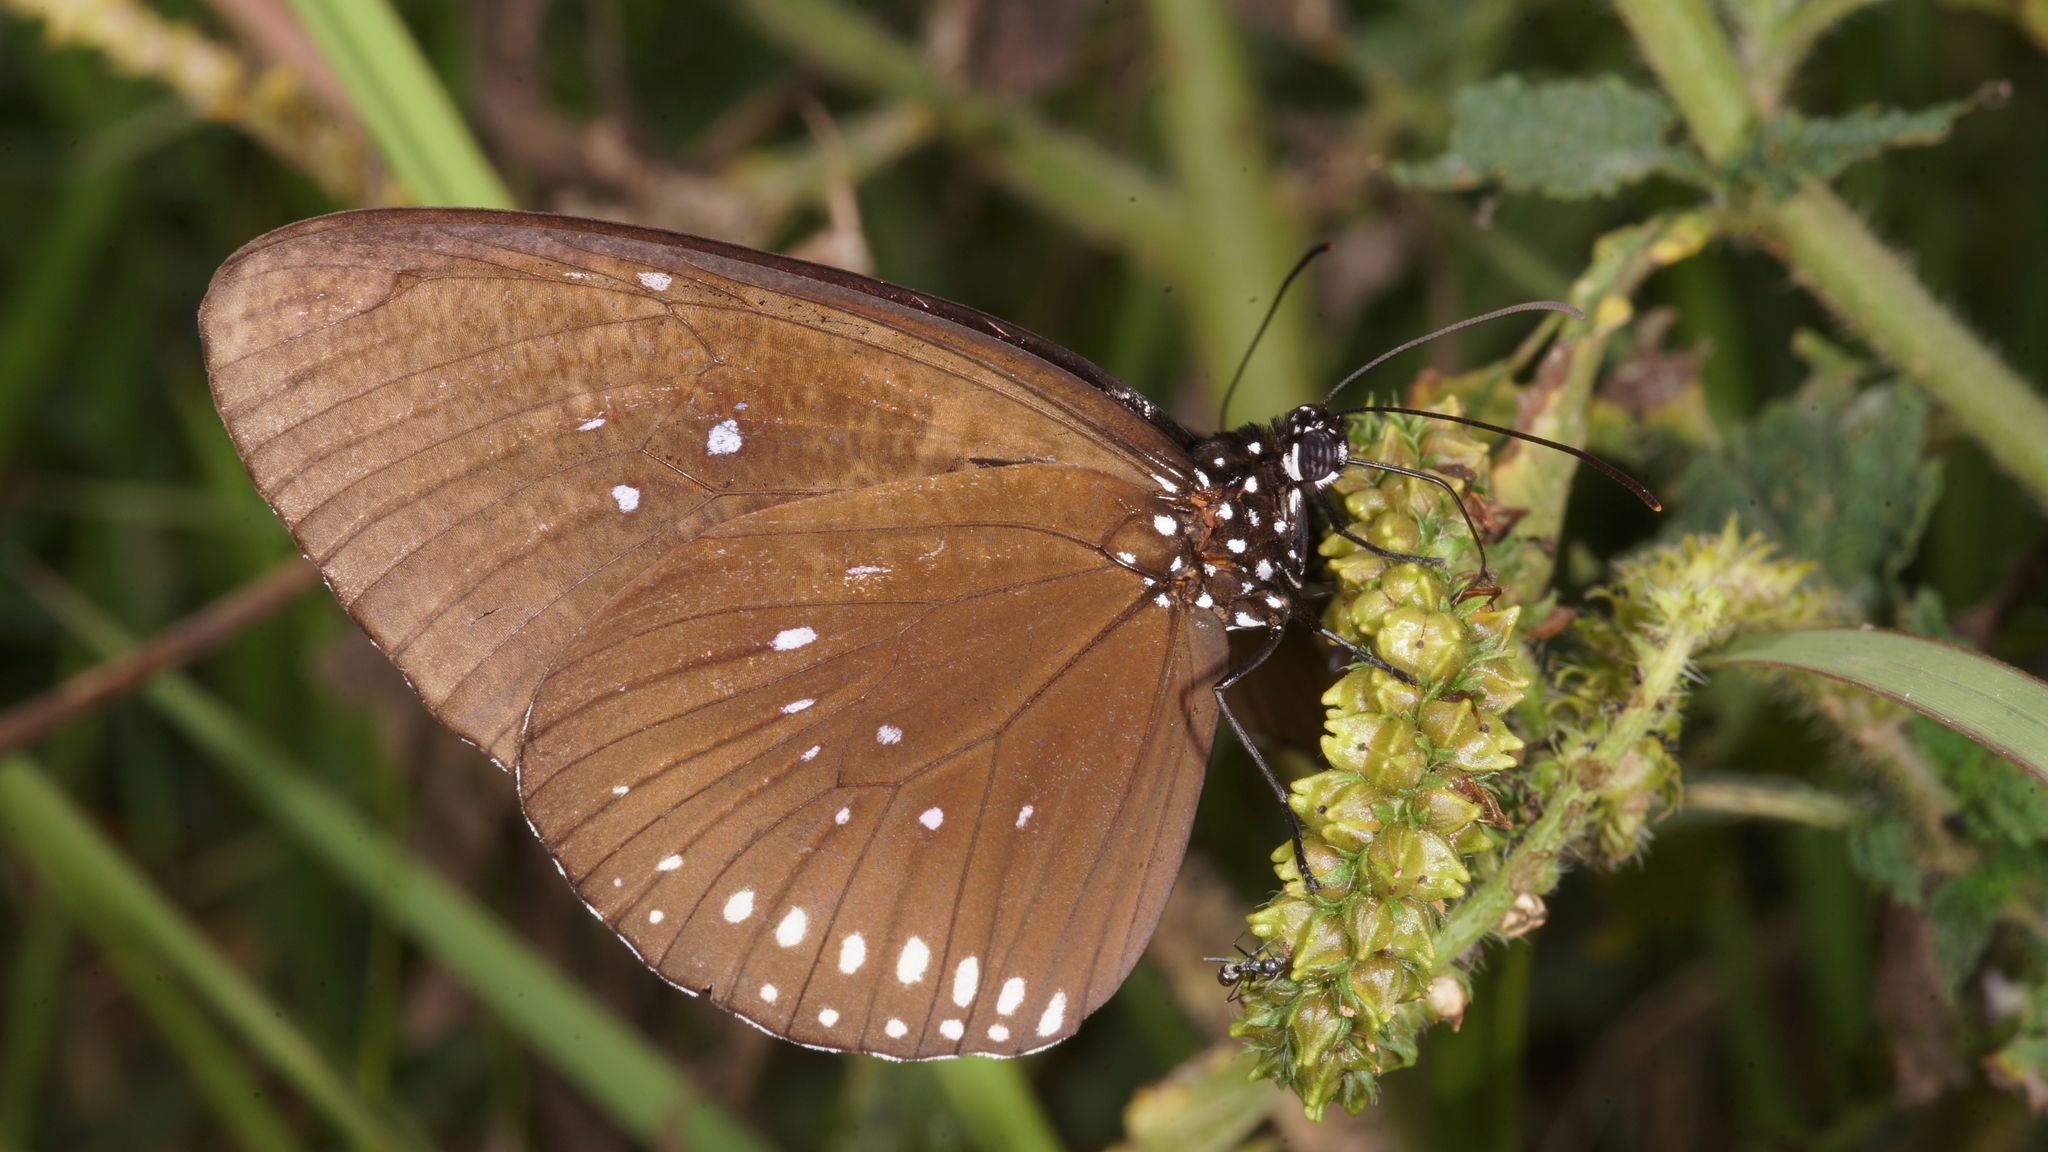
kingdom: Animalia
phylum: Arthropoda
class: Insecta
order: Lepidoptera
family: Nymphalidae
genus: Euploea
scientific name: Euploea modesta
